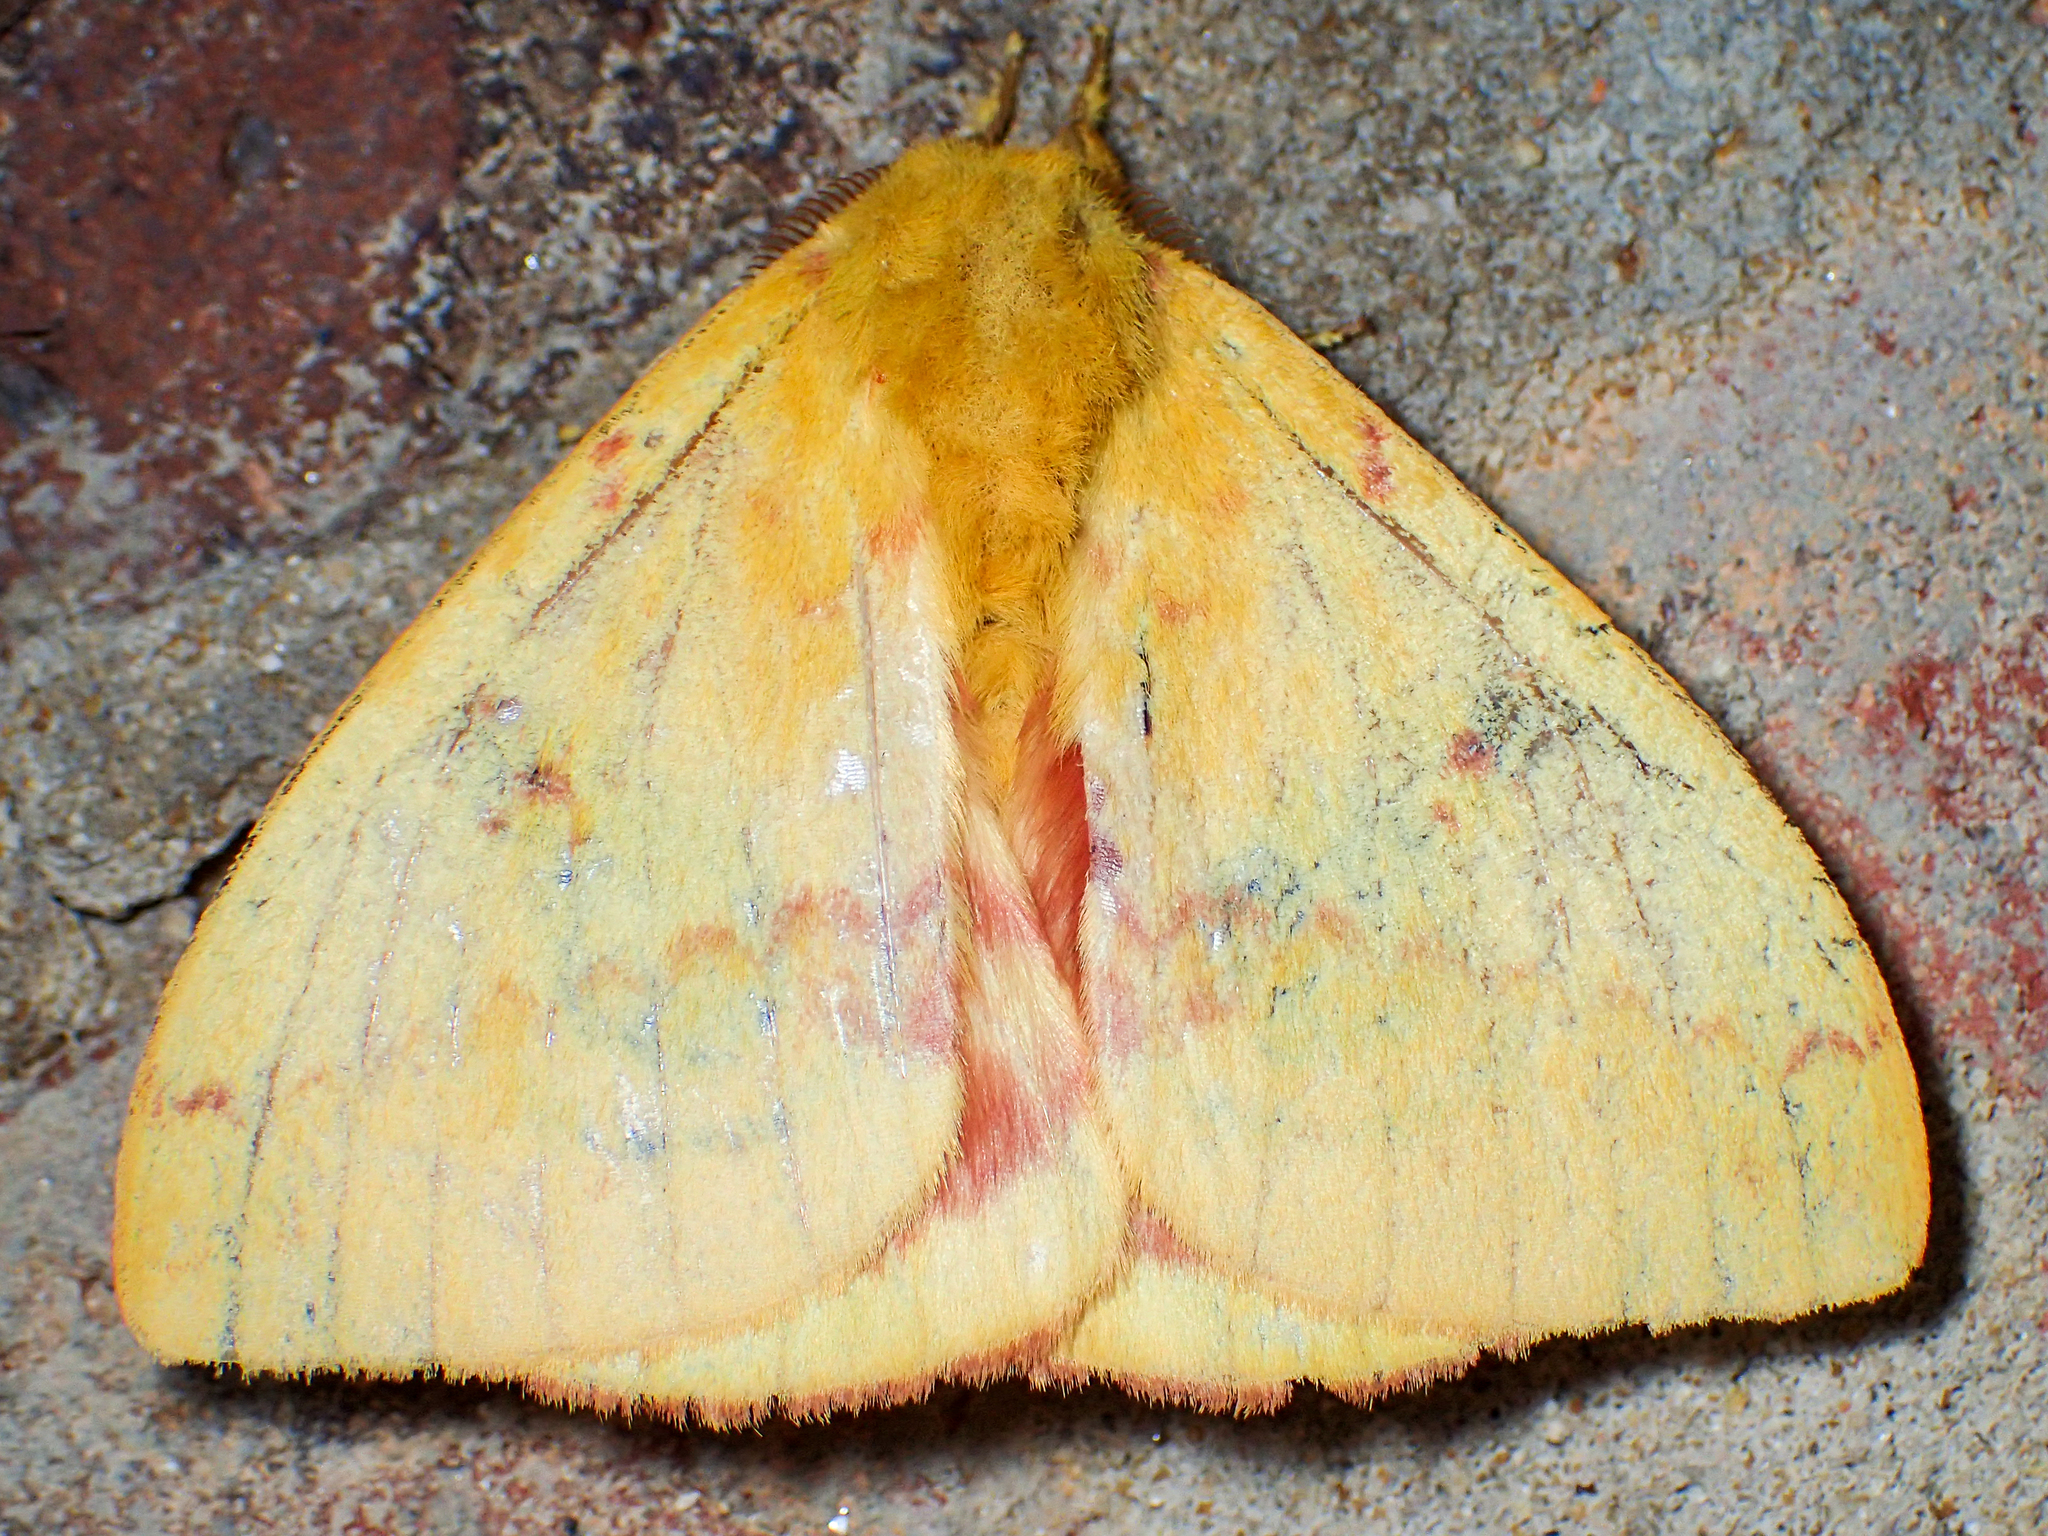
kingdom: Animalia
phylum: Arthropoda
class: Insecta
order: Lepidoptera
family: Saturniidae
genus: Automeris
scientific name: Automeris io
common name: Io moth
